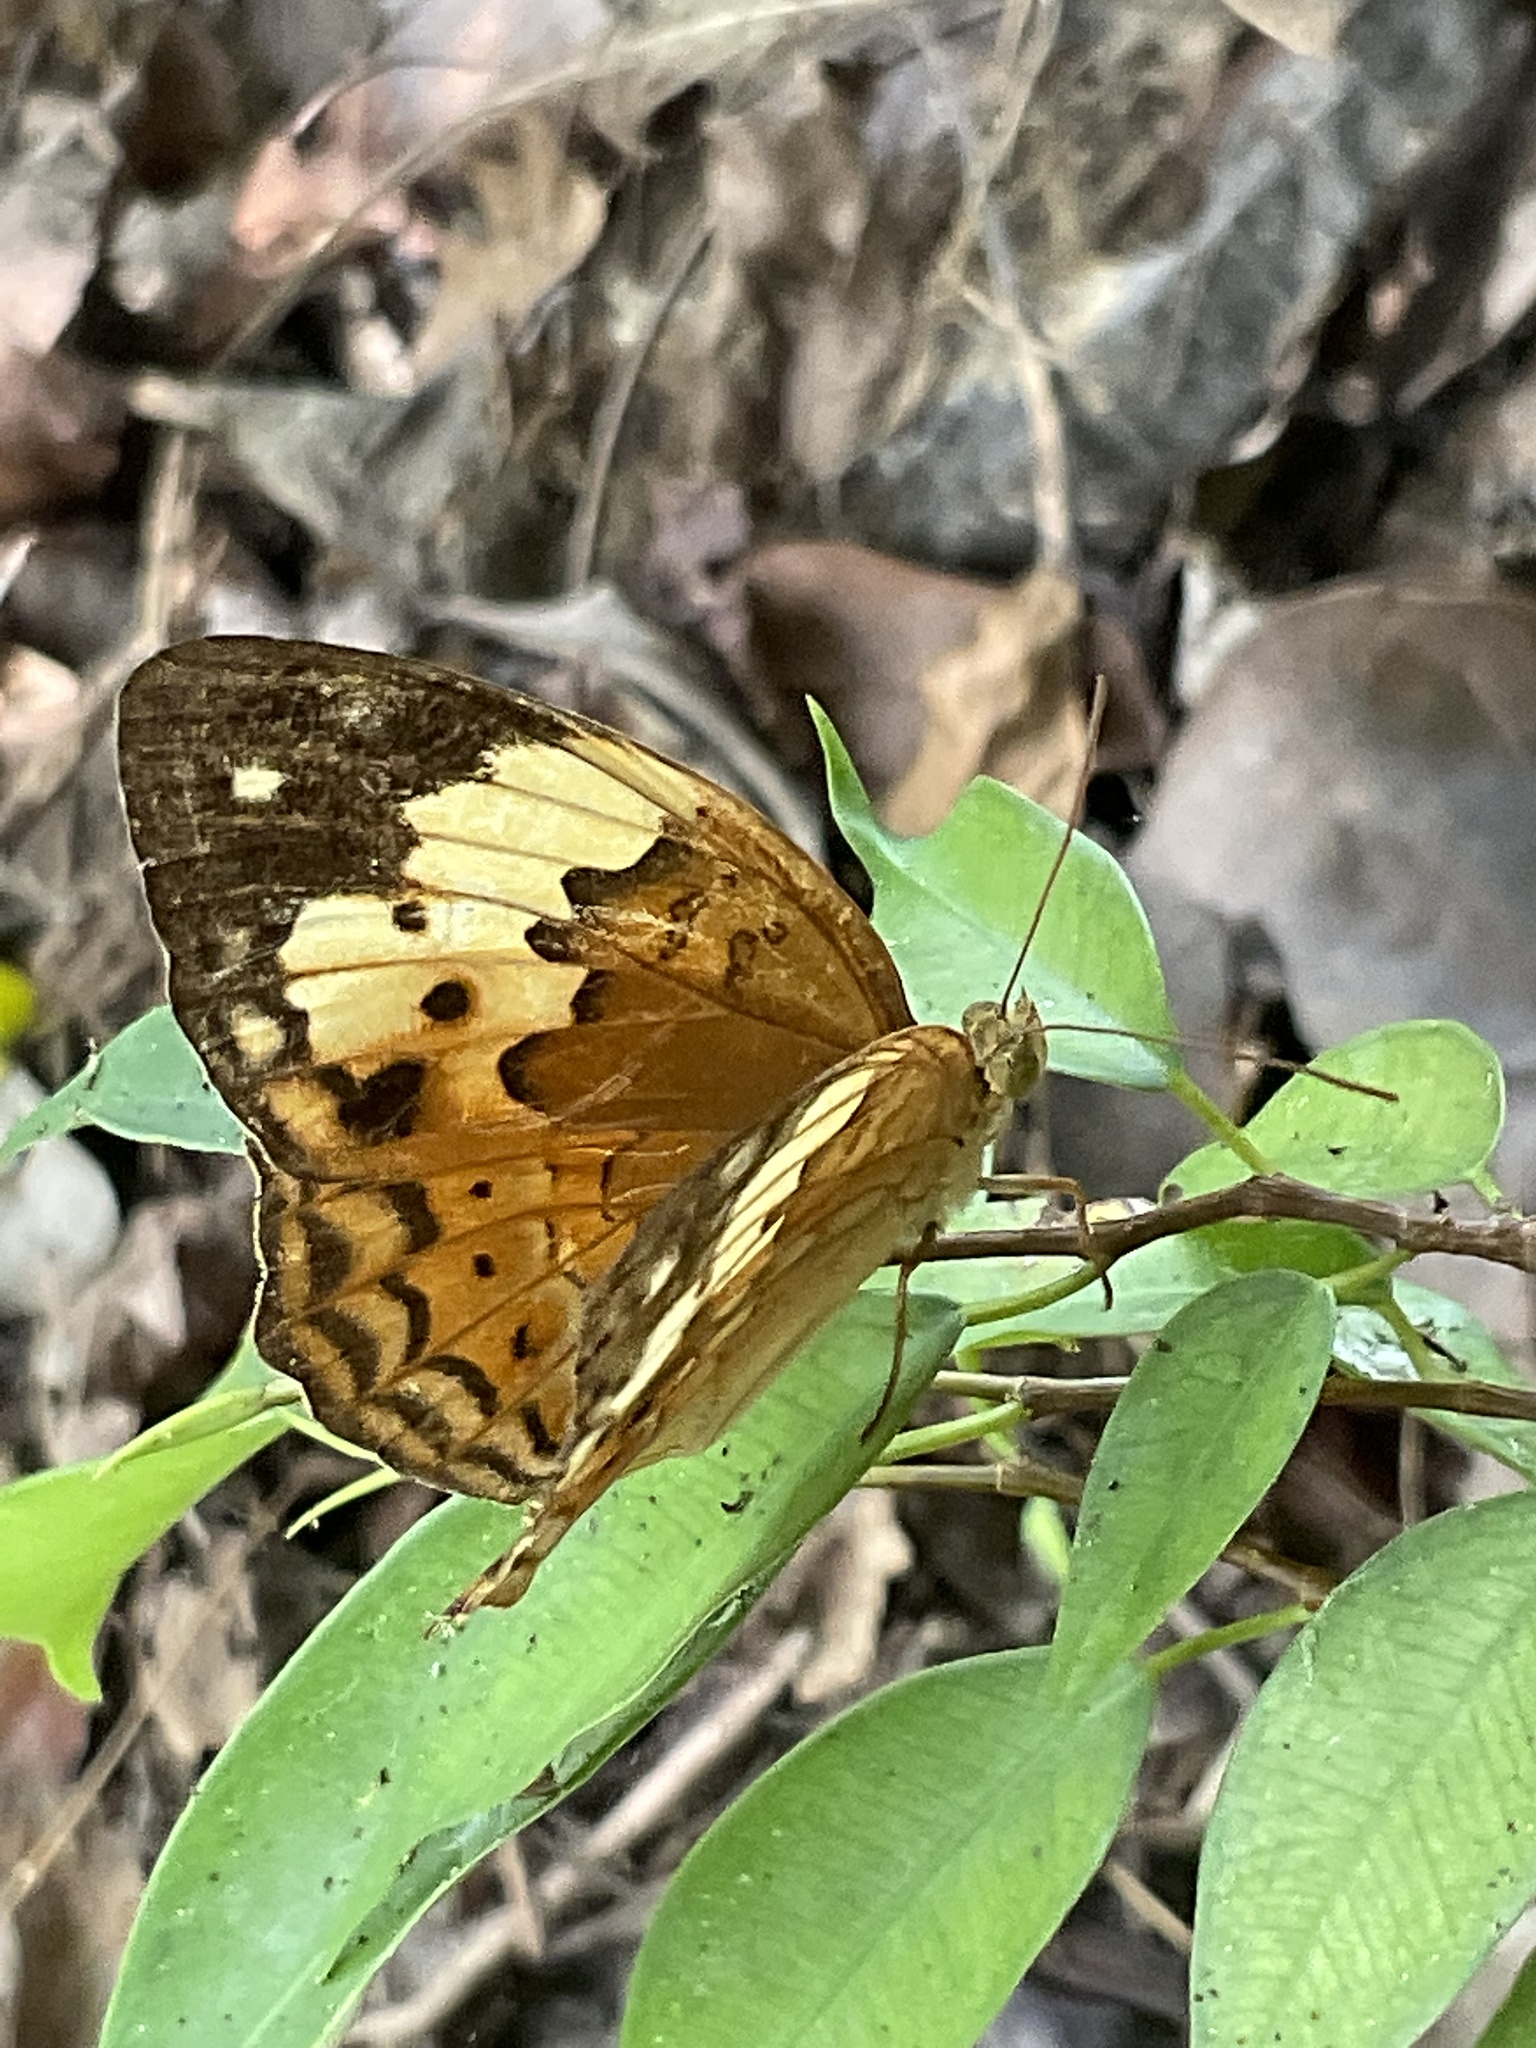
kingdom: Animalia
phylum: Arthropoda
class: Insecta
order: Lepidoptera
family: Nymphalidae
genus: Cupha
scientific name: Cupha erymanthis
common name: Rustic
